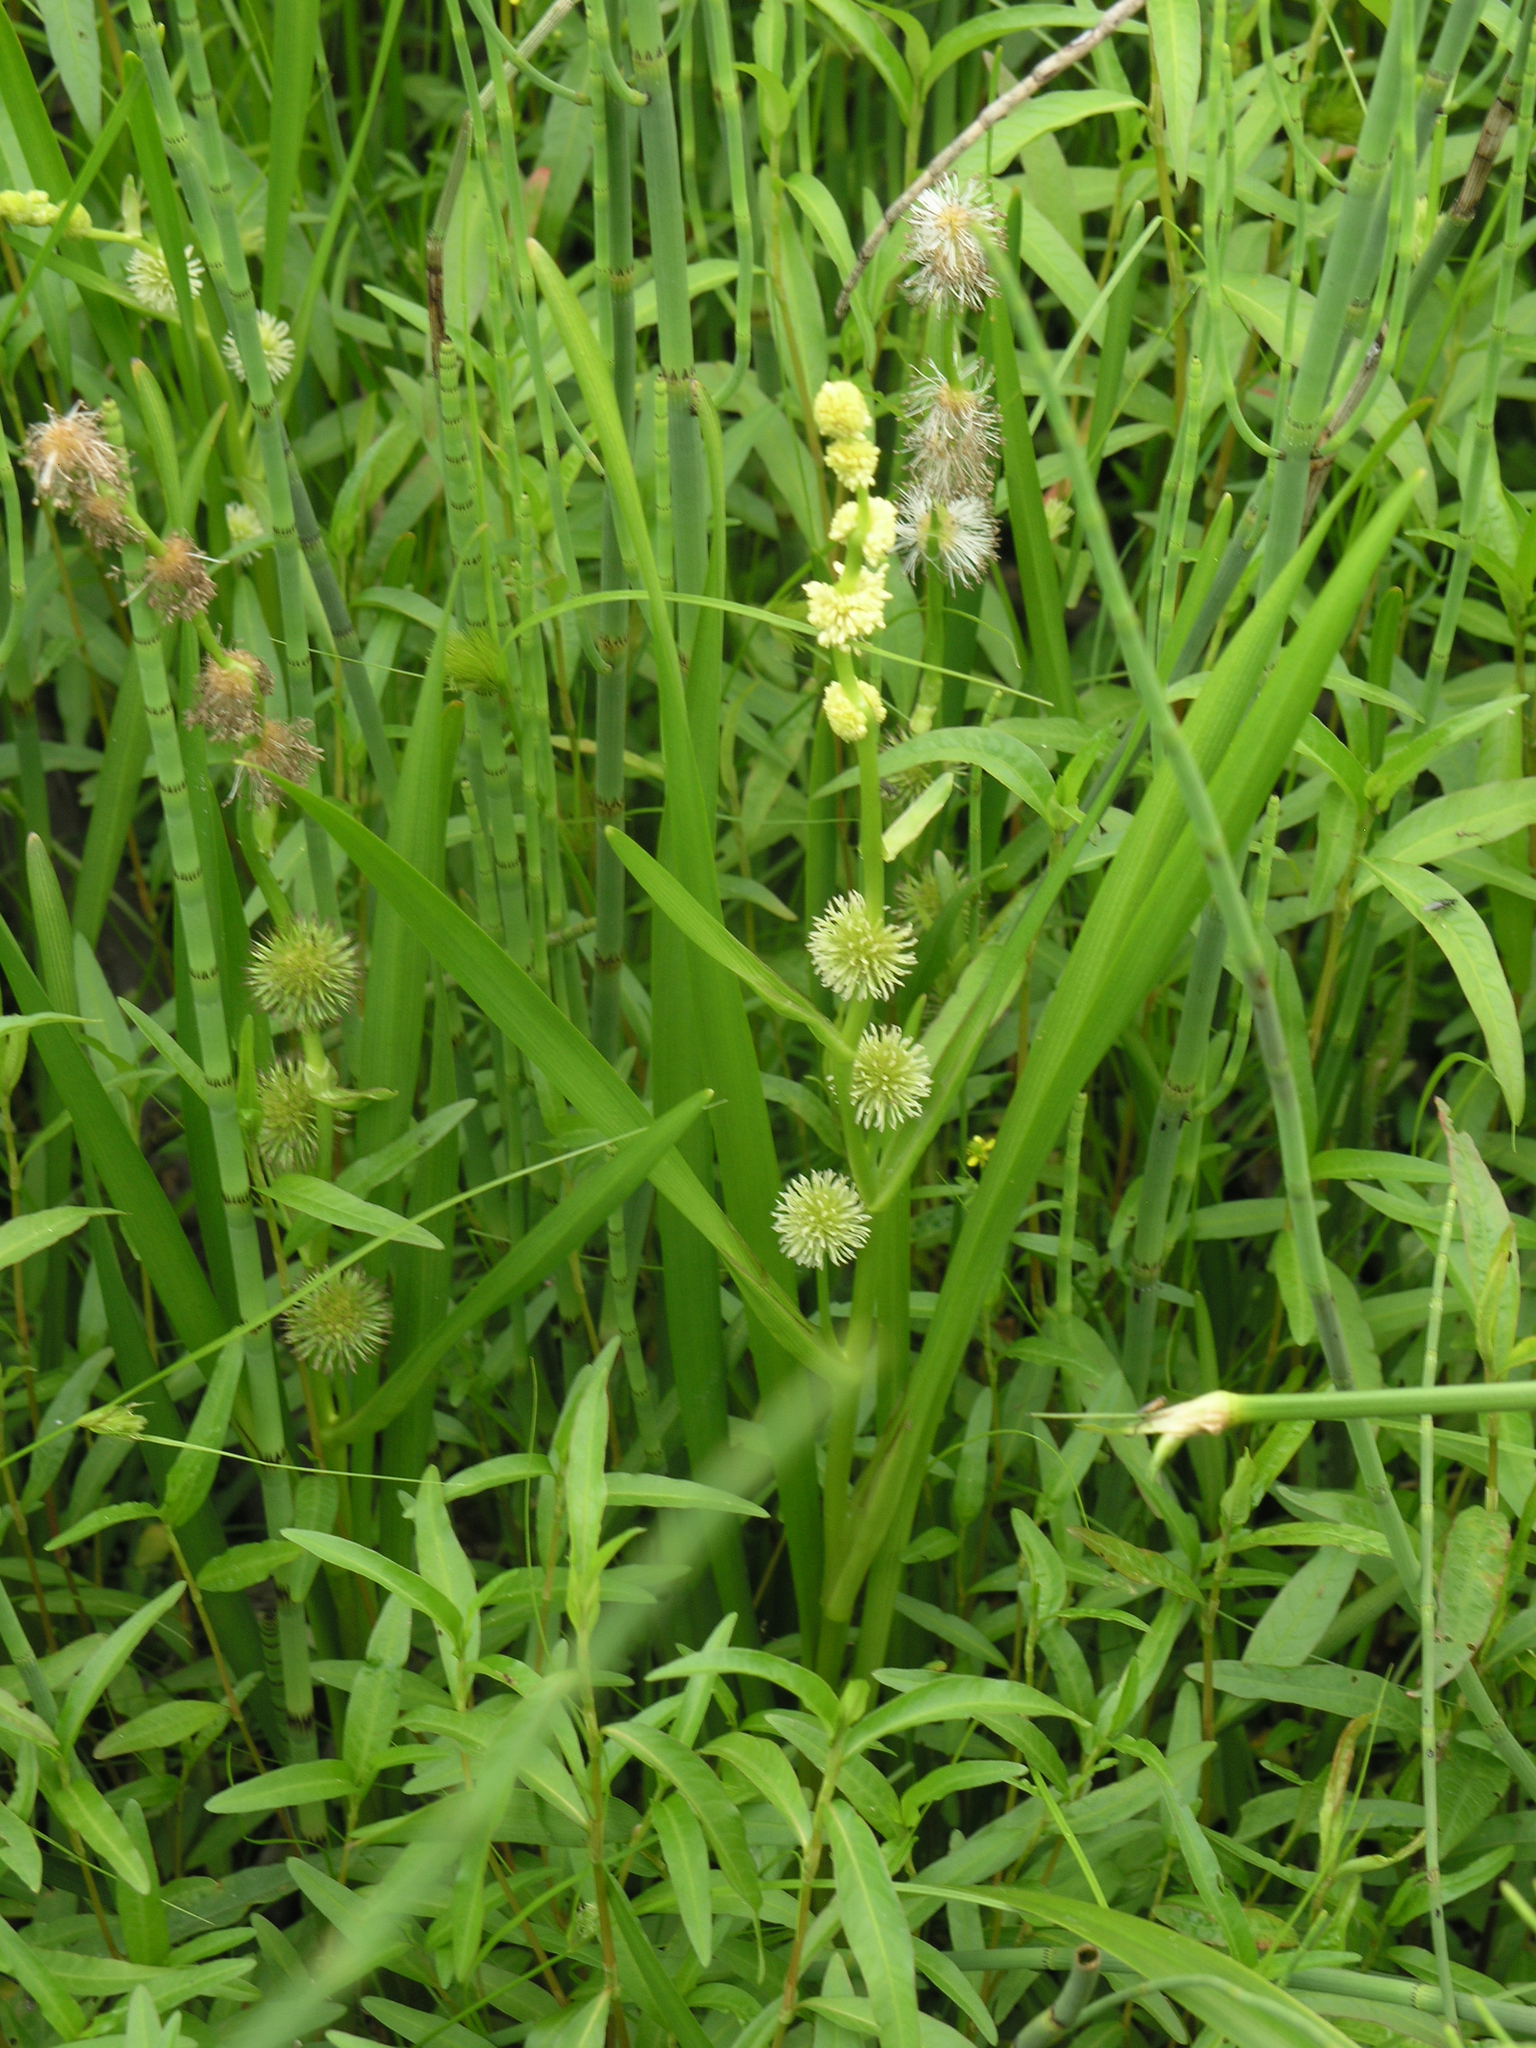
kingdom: Plantae
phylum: Tracheophyta
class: Liliopsida
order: Poales
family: Typhaceae
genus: Sparganium
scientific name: Sparganium emersum
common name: Unbranched bur-reed
